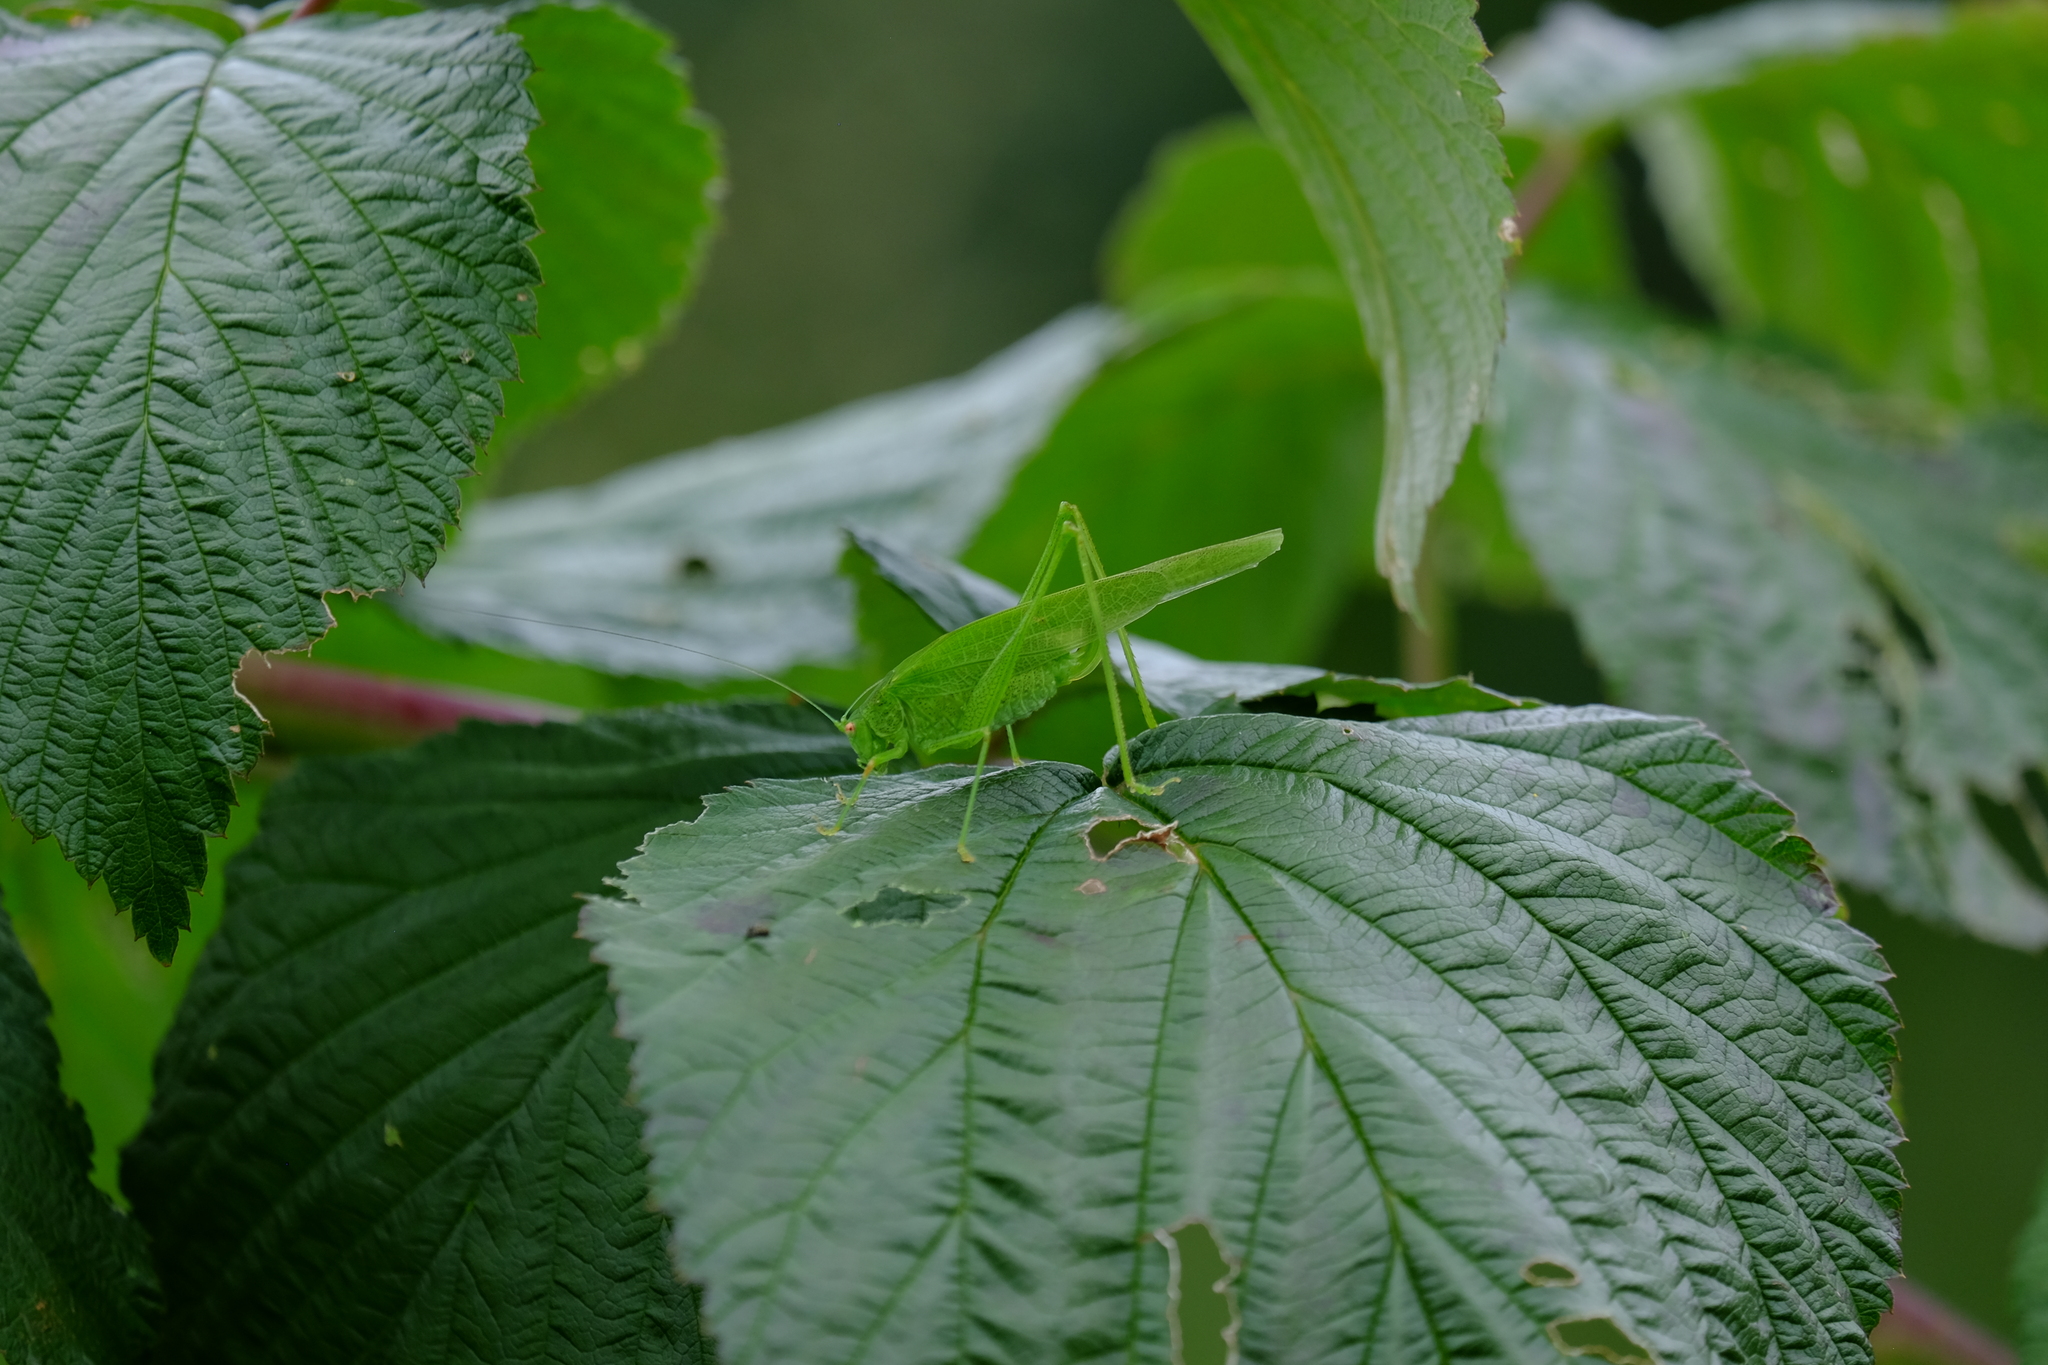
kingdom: Animalia
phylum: Arthropoda
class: Insecta
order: Orthoptera
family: Tettigoniidae
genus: Phaneroptera
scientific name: Phaneroptera nana
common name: Southern sickle bush-cricket
